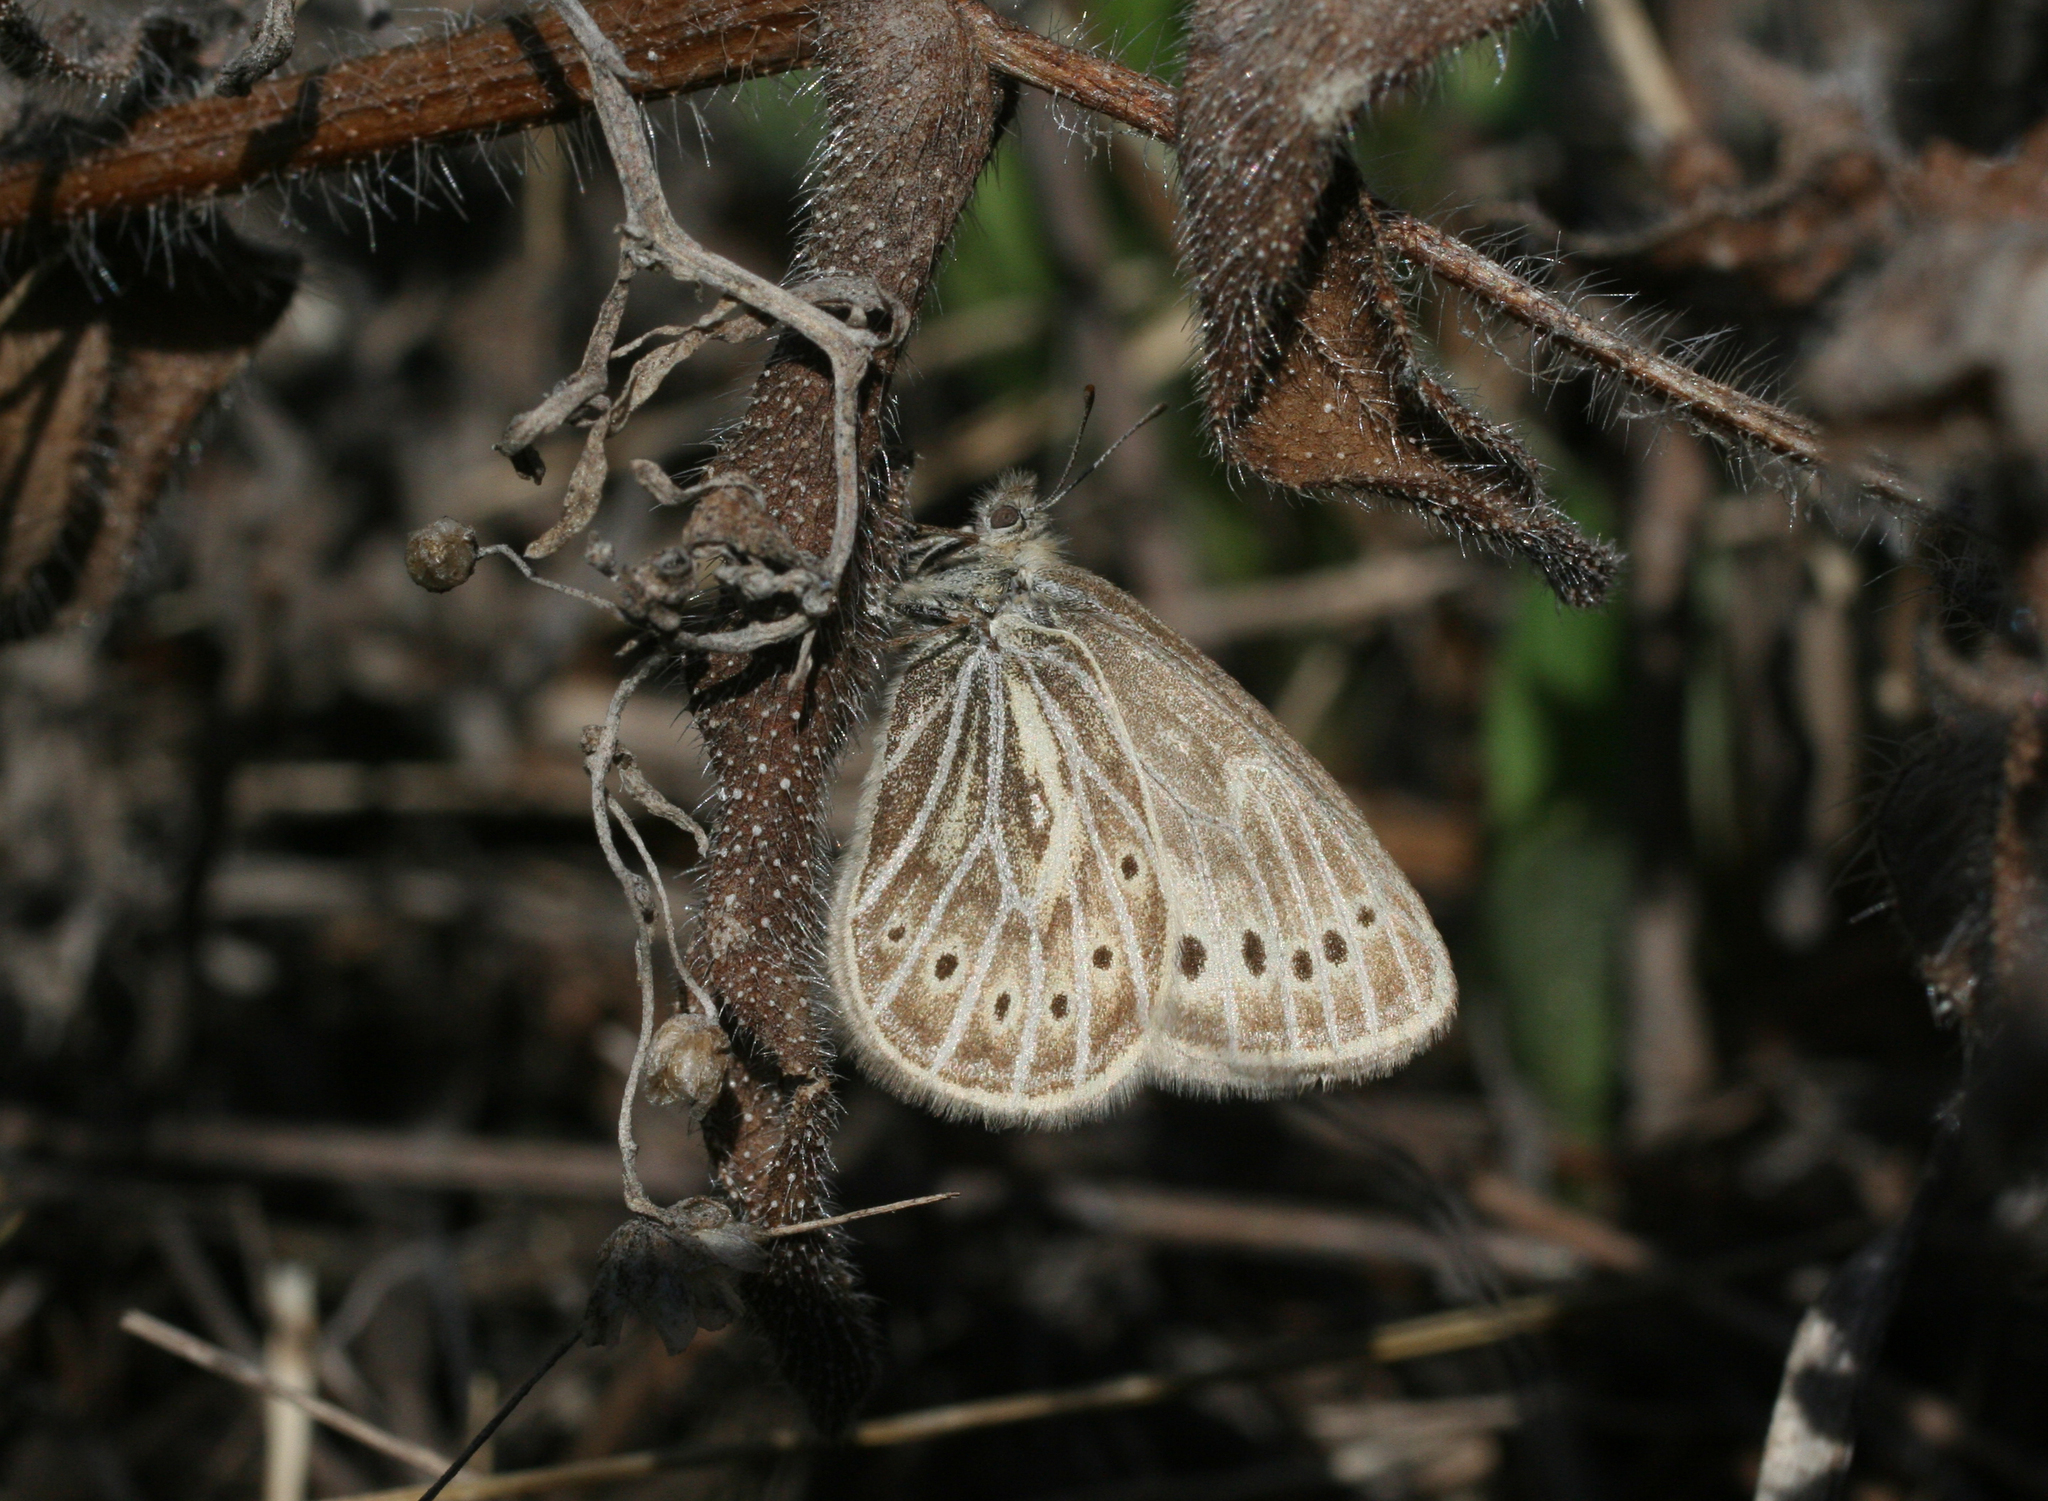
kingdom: Animalia
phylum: Arthropoda
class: Insecta
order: Lepidoptera
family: Nymphalidae
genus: Triphysa
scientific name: Triphysa phryne
